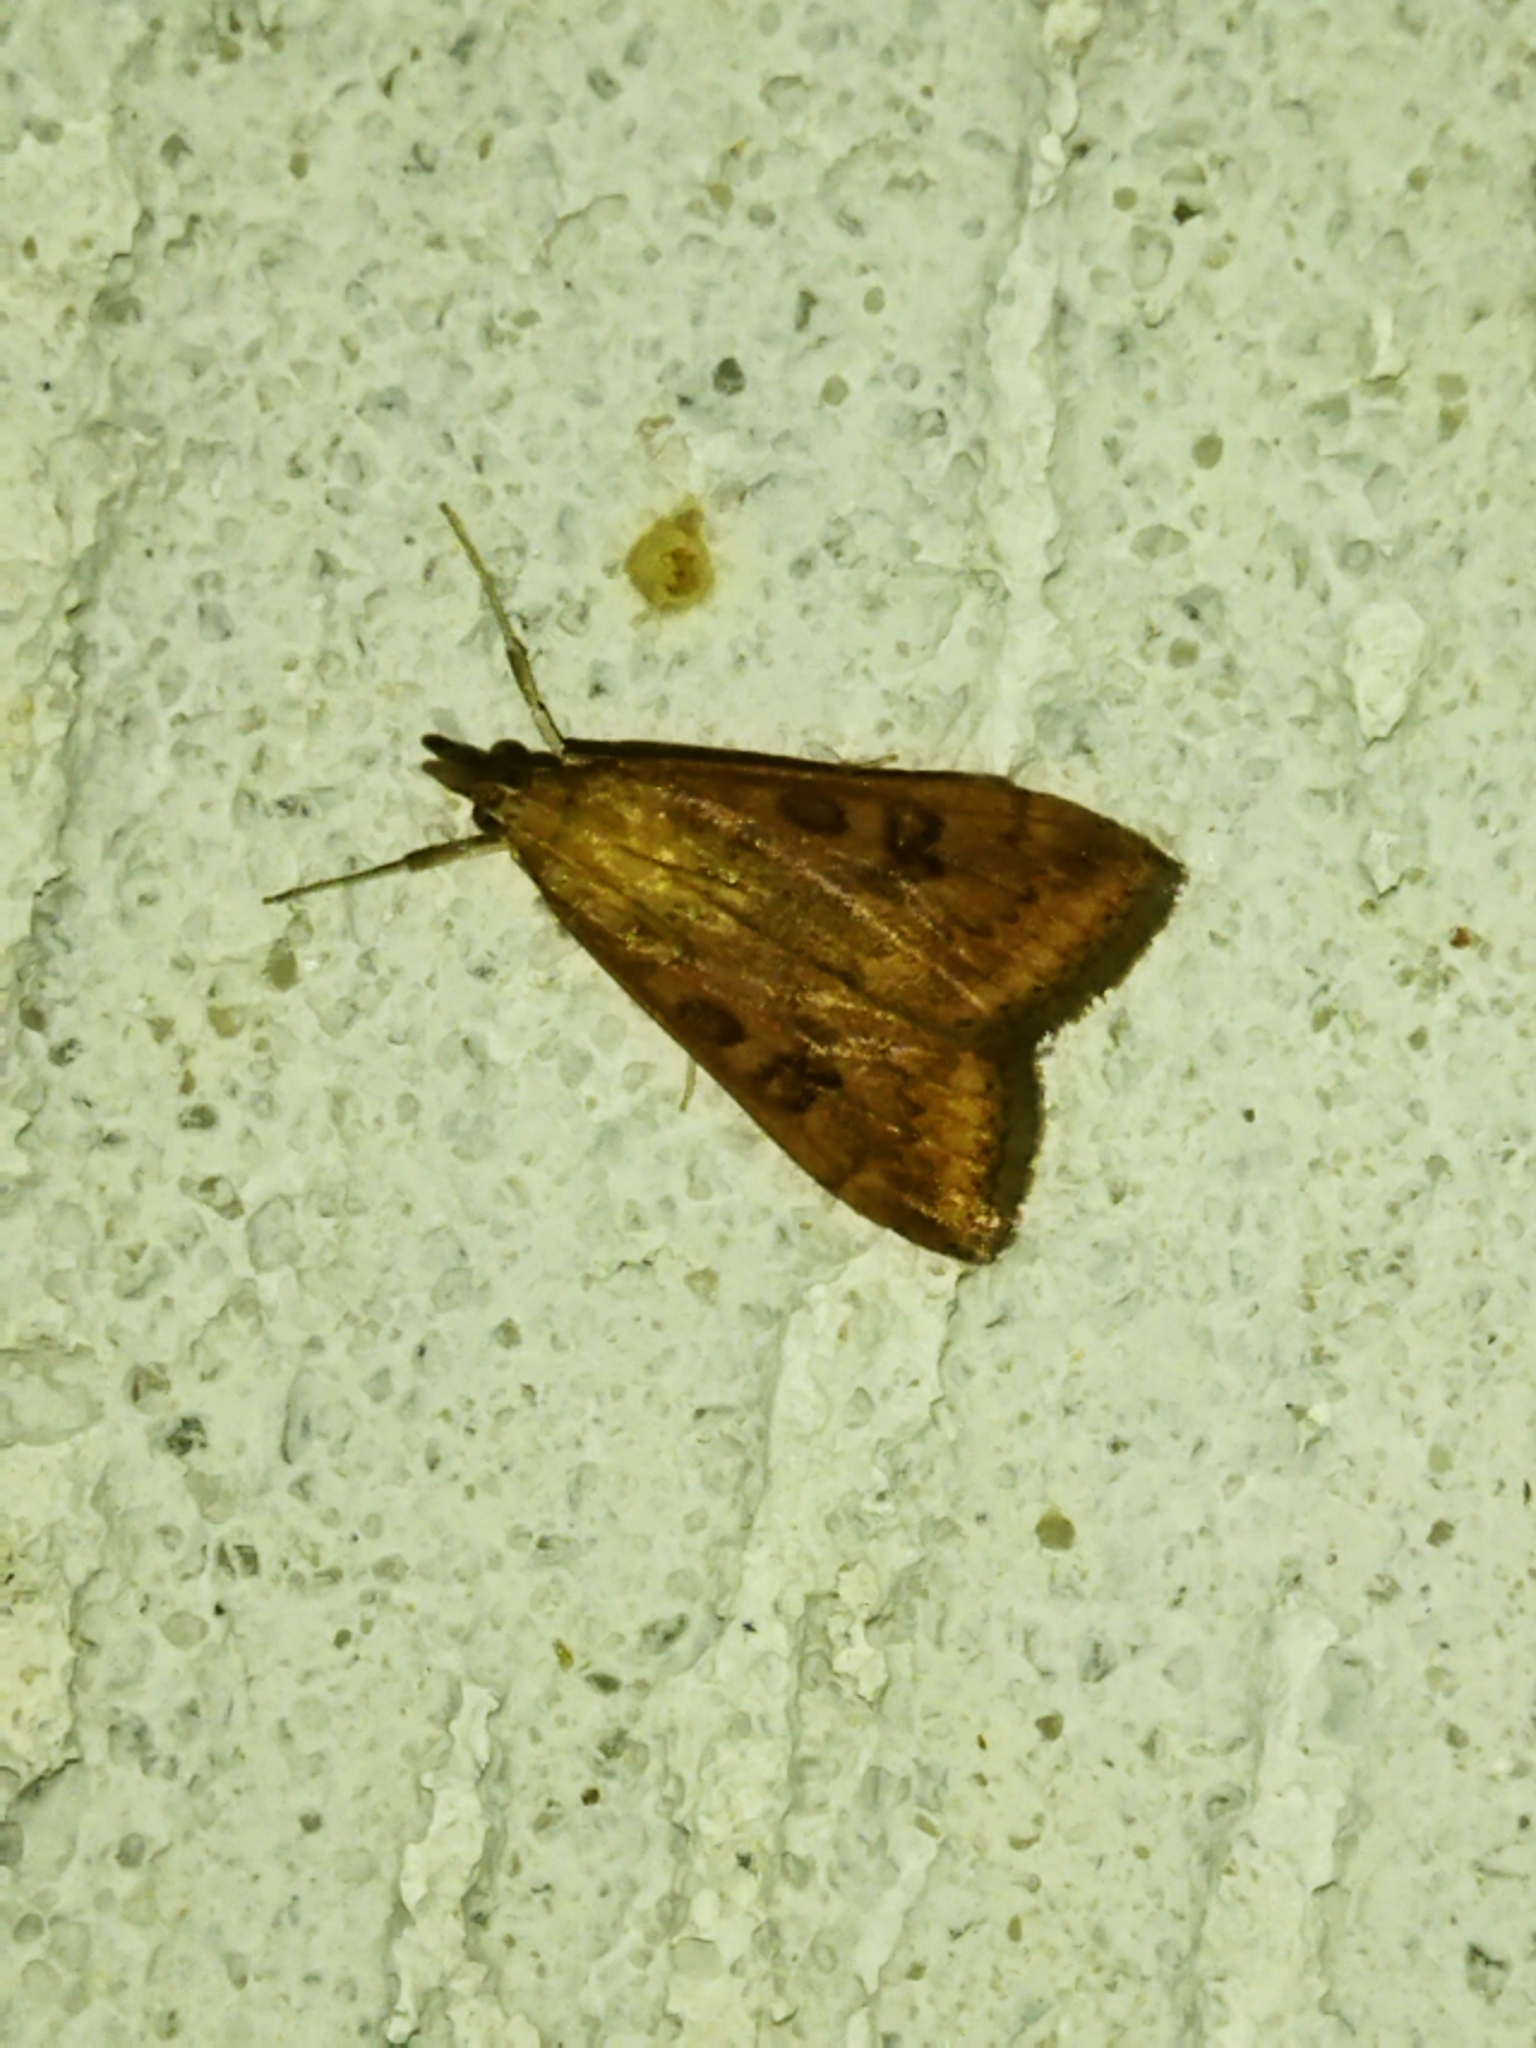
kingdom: Animalia
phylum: Arthropoda
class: Insecta
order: Lepidoptera
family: Crambidae
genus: Udea
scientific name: Udea ferrugalis
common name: Rusty dot
